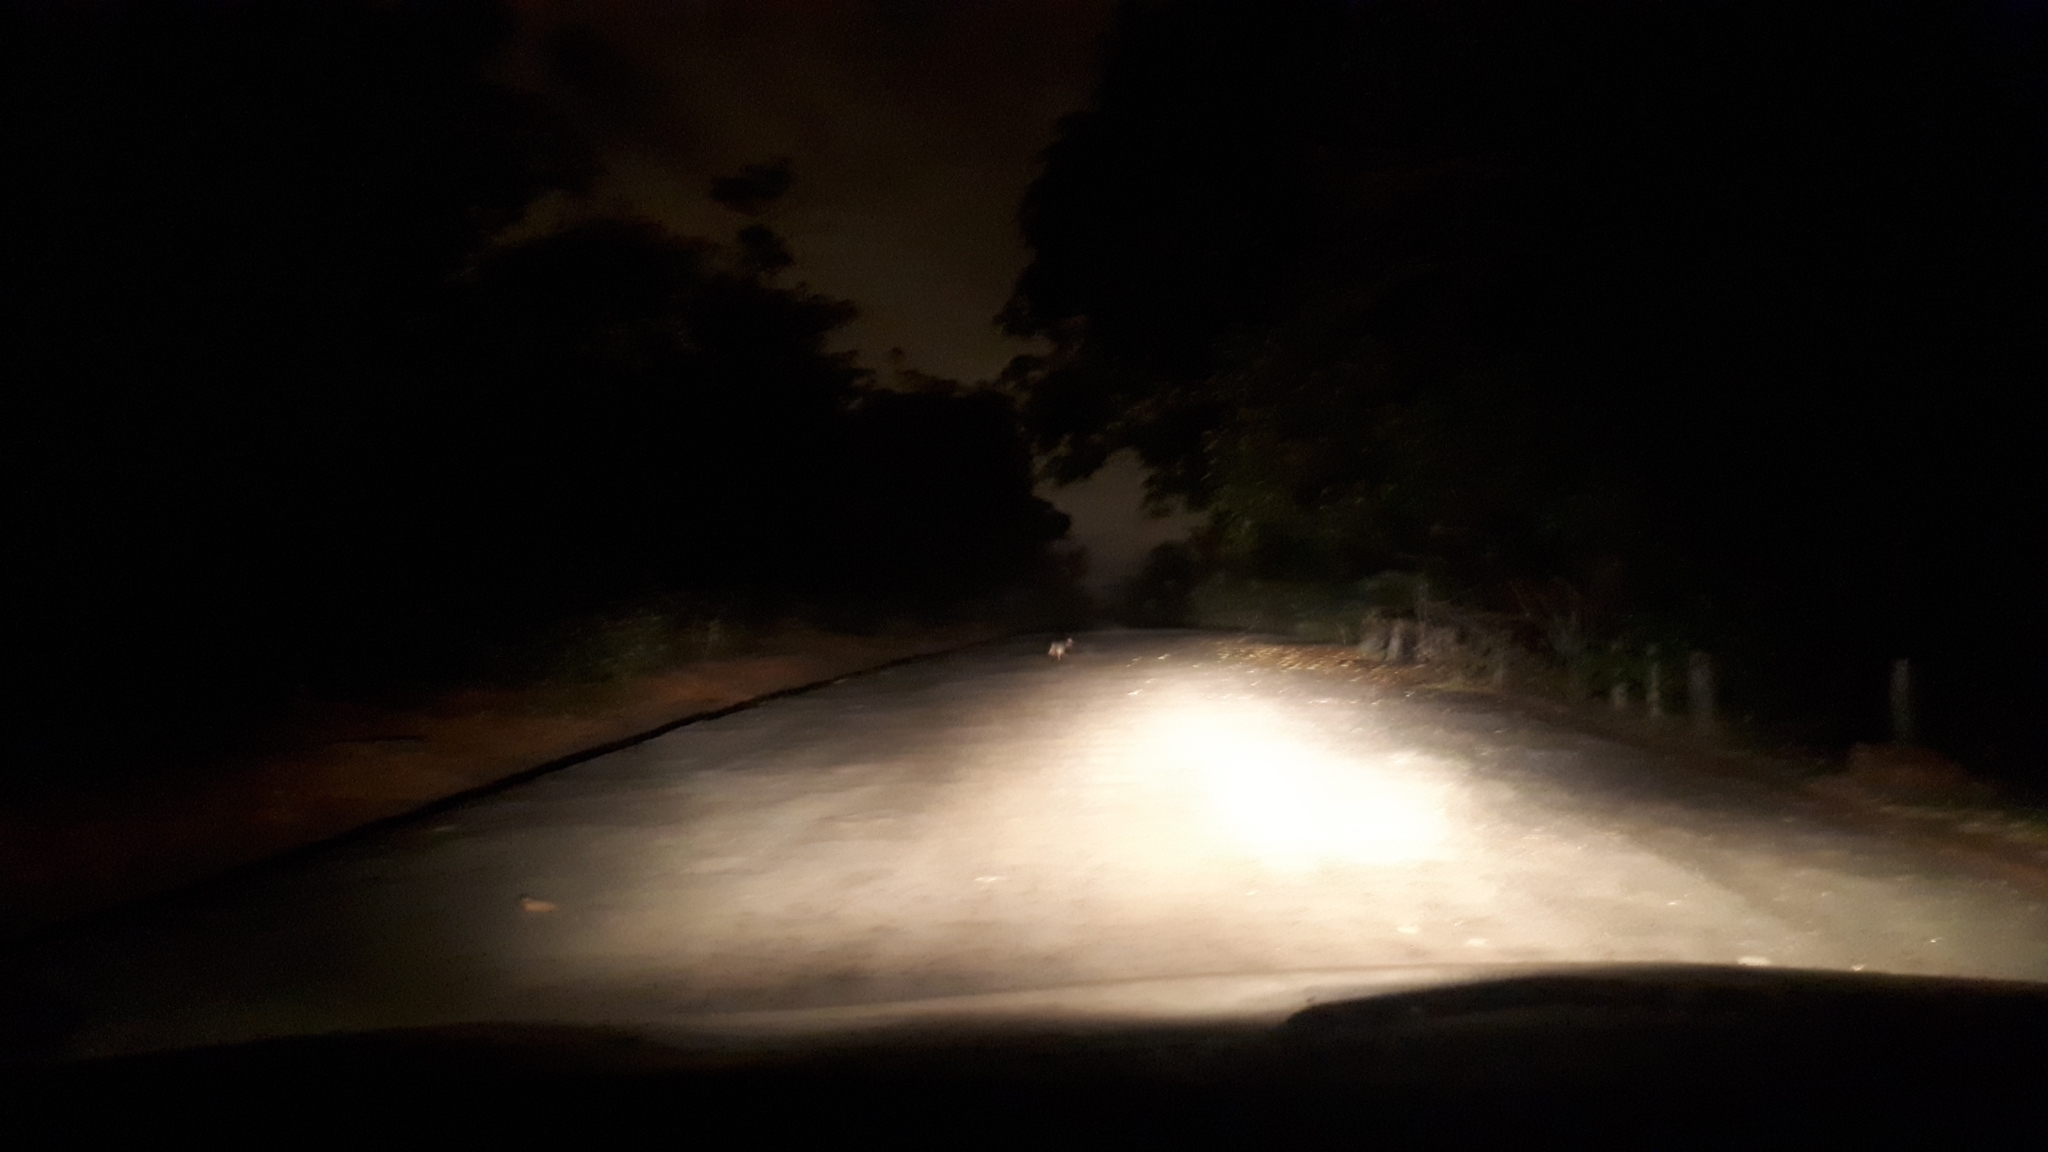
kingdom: Animalia
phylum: Chordata
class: Mammalia
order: Carnivora
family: Canidae
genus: Cerdocyon
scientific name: Cerdocyon thous
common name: Crab-eating fox
